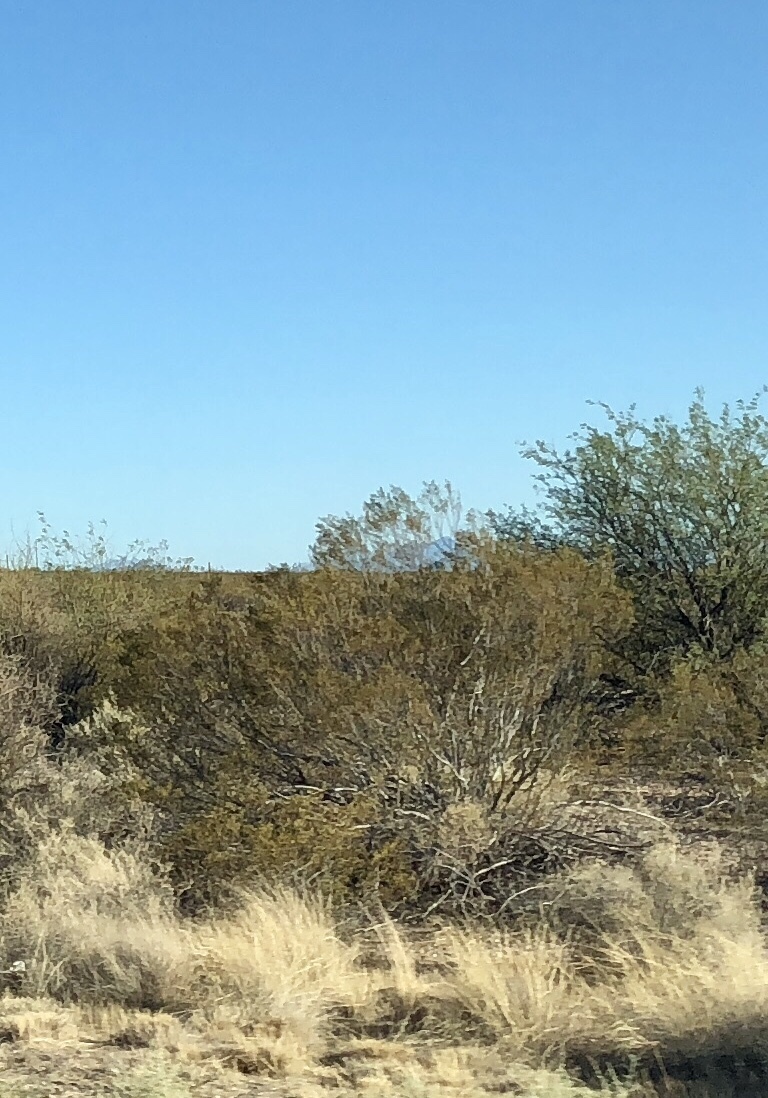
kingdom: Plantae
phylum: Tracheophyta
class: Magnoliopsida
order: Zygophyllales
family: Zygophyllaceae
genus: Larrea
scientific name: Larrea tridentata
